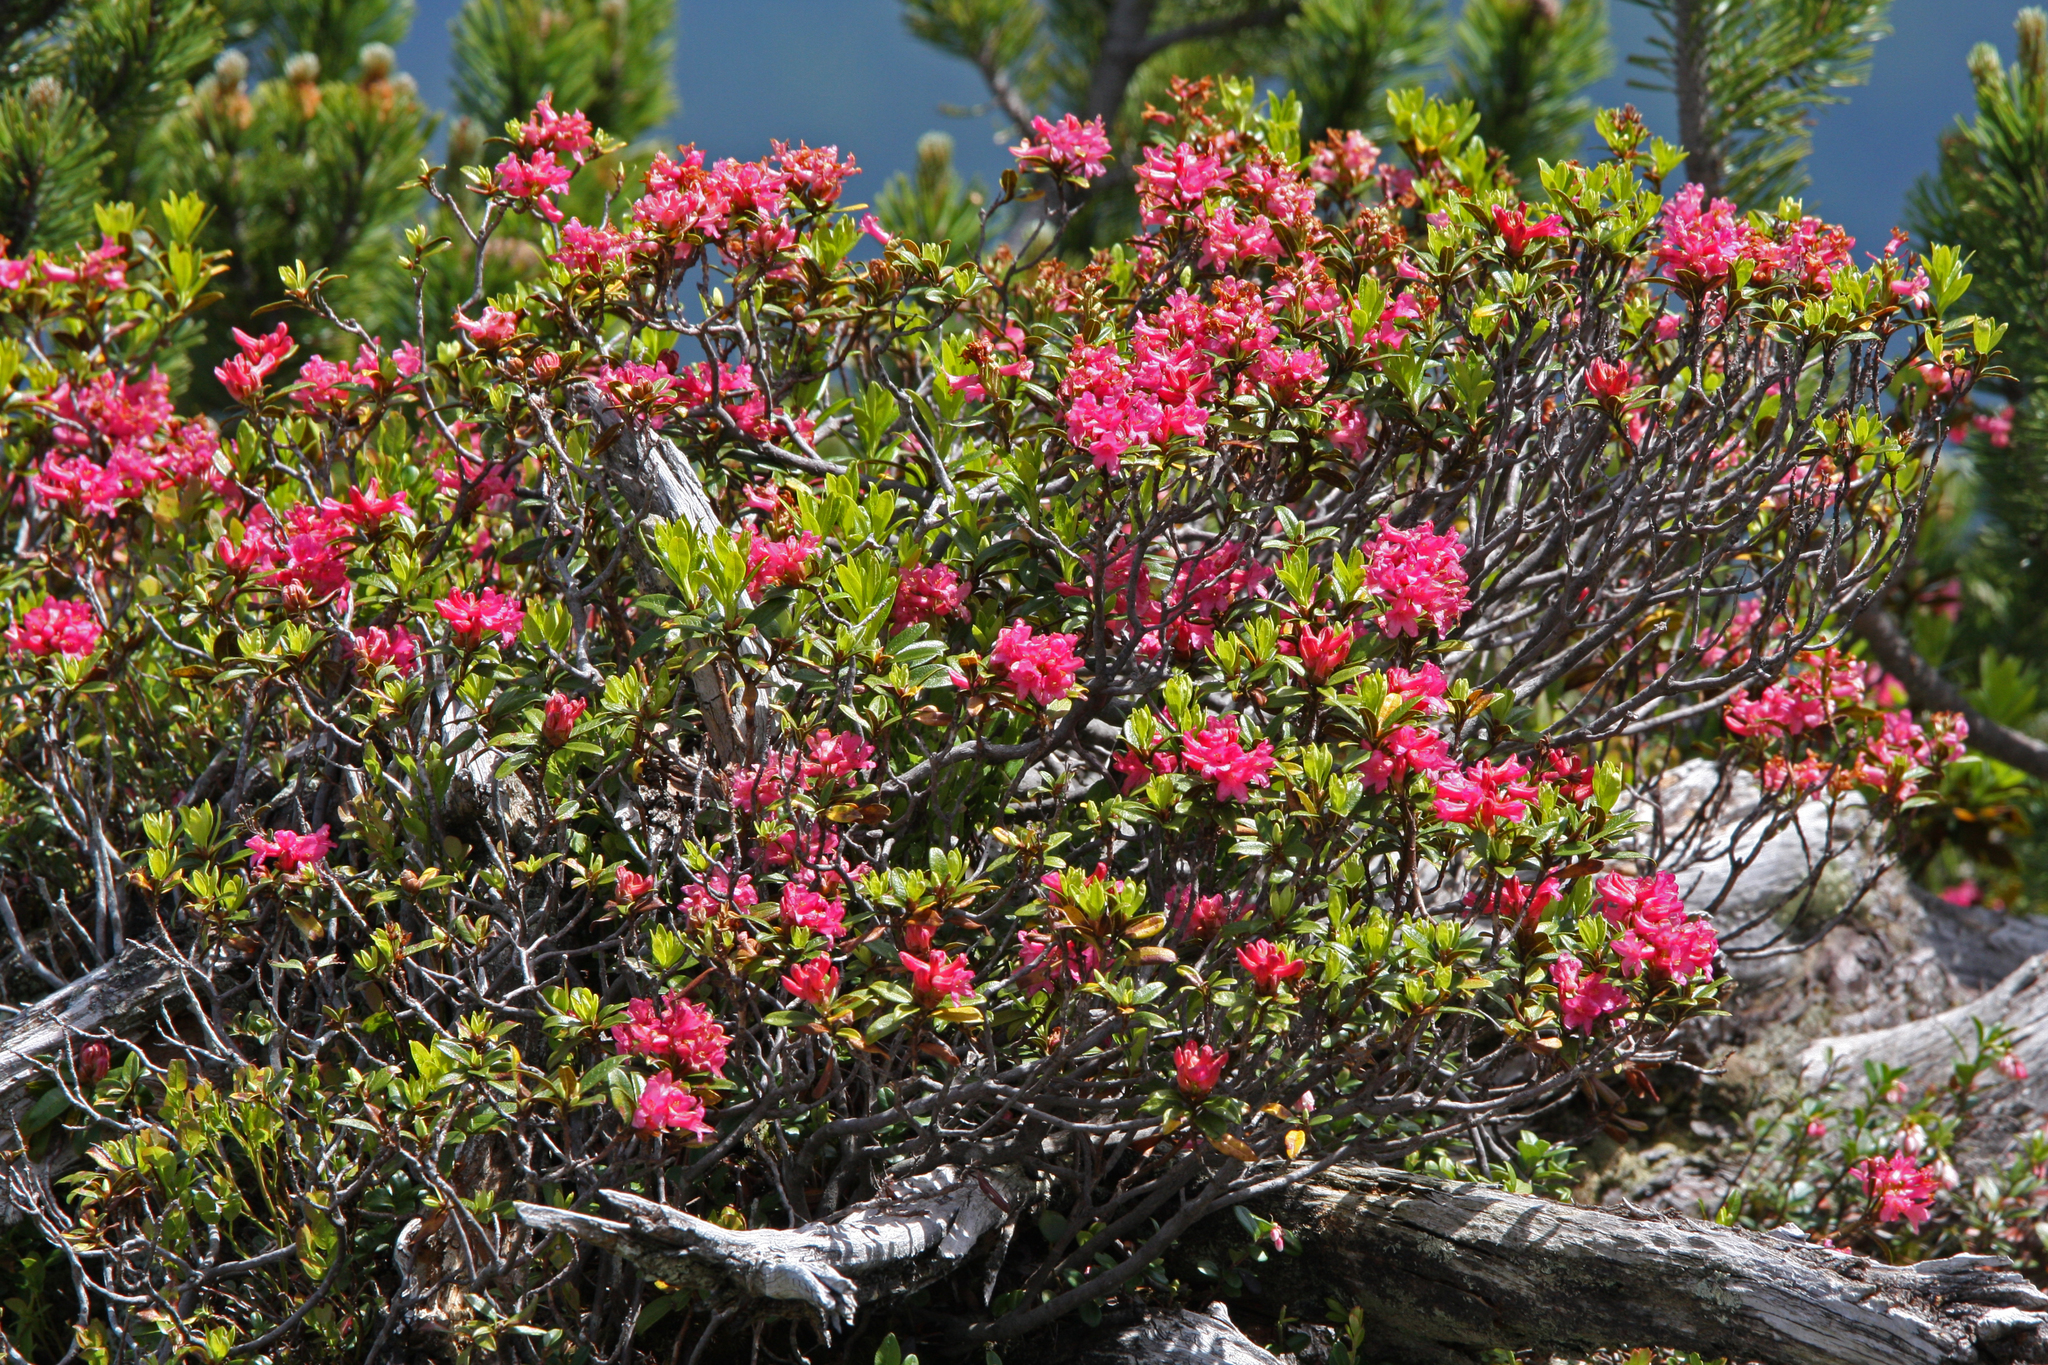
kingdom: Plantae
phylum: Tracheophyta
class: Magnoliopsida
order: Ericales
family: Ericaceae
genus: Rhododendron
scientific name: Rhododendron ferrugineum
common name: Alpenrose
